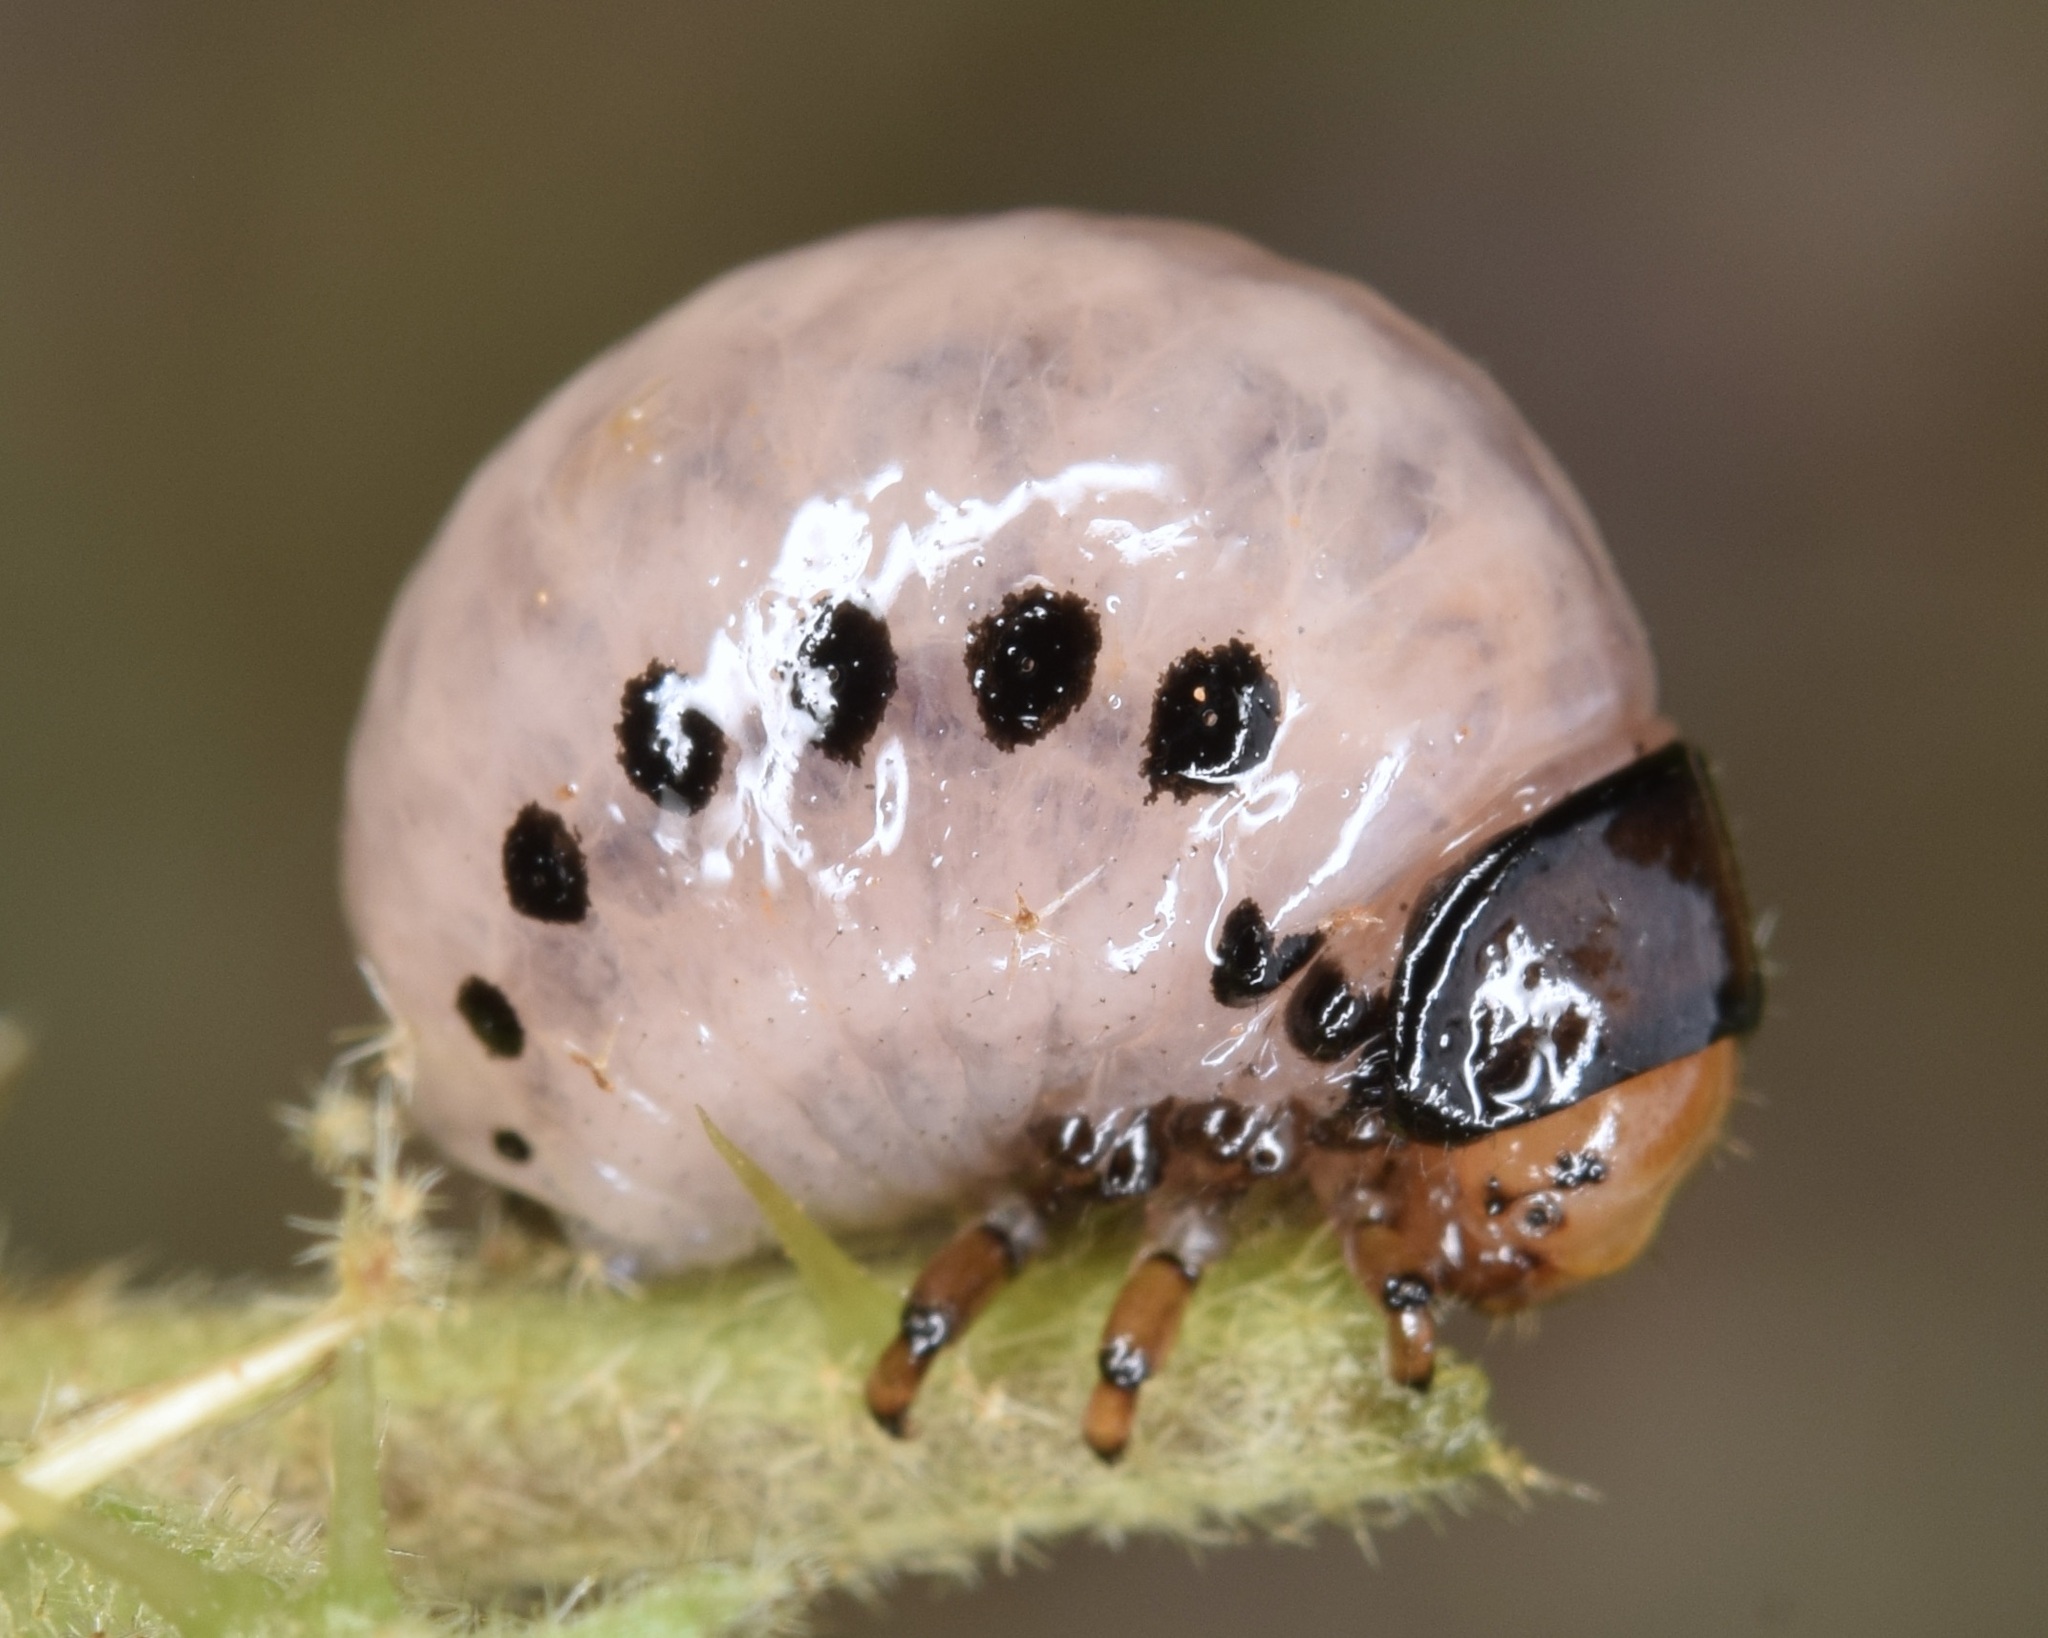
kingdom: Animalia
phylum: Arthropoda
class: Insecta
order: Coleoptera
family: Chrysomelidae
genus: Leptinotarsa
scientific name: Leptinotarsa juncta
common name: False potato beetle
